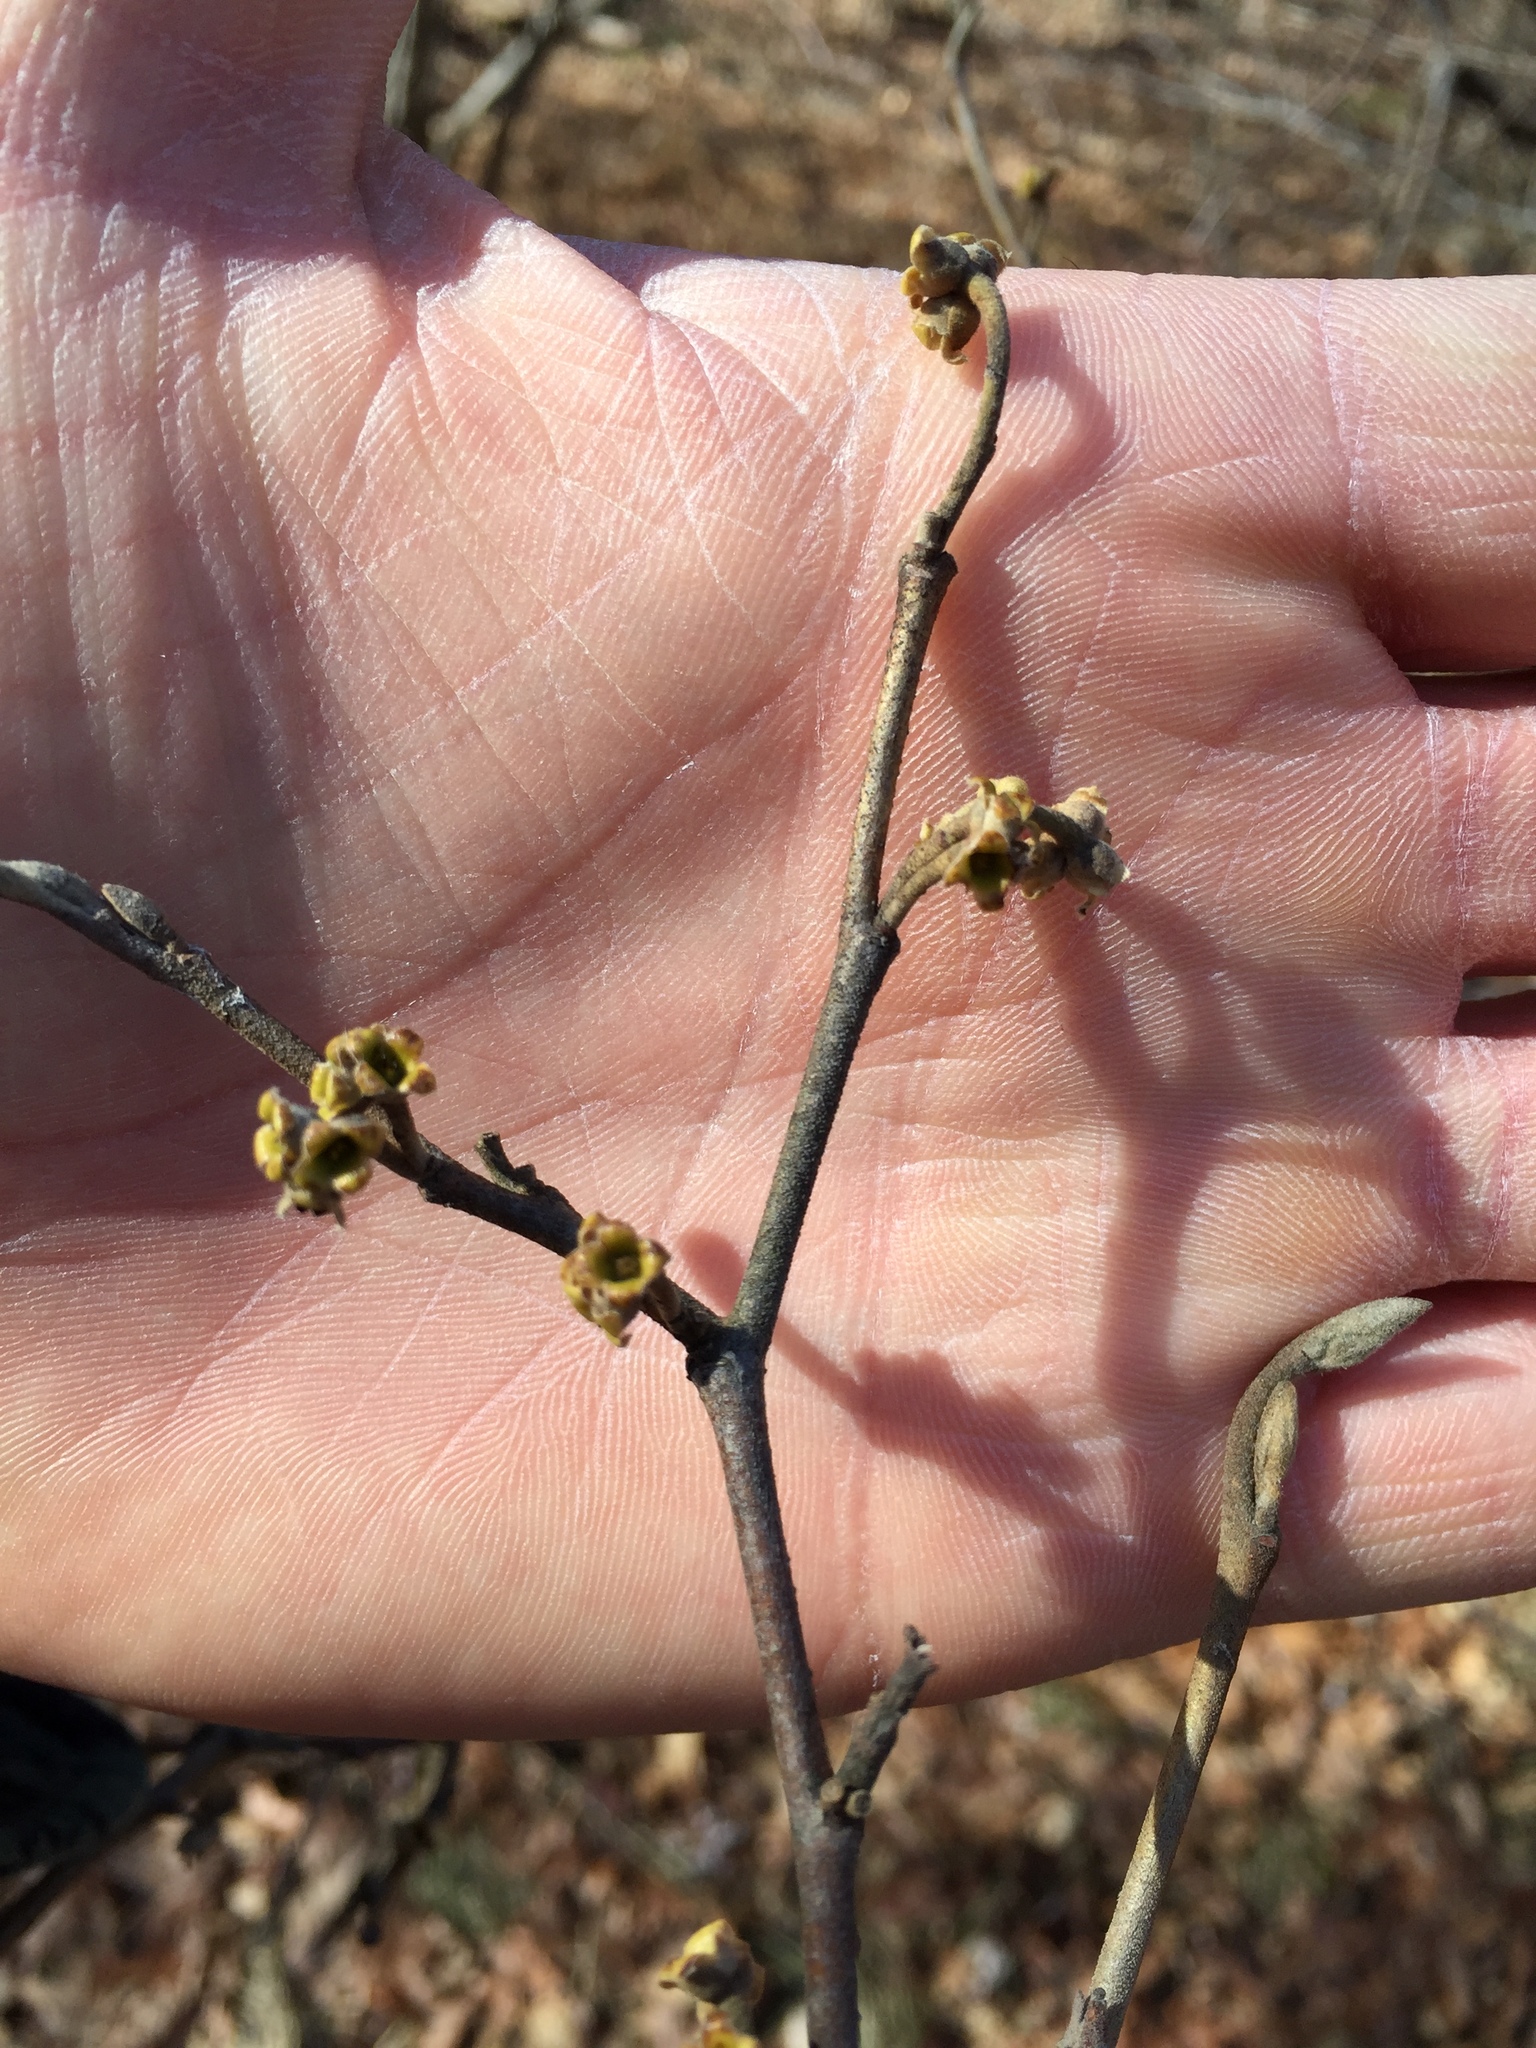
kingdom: Plantae
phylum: Tracheophyta
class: Magnoliopsida
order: Saxifragales
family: Hamamelidaceae
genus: Hamamelis
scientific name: Hamamelis virginiana
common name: Witch-hazel
